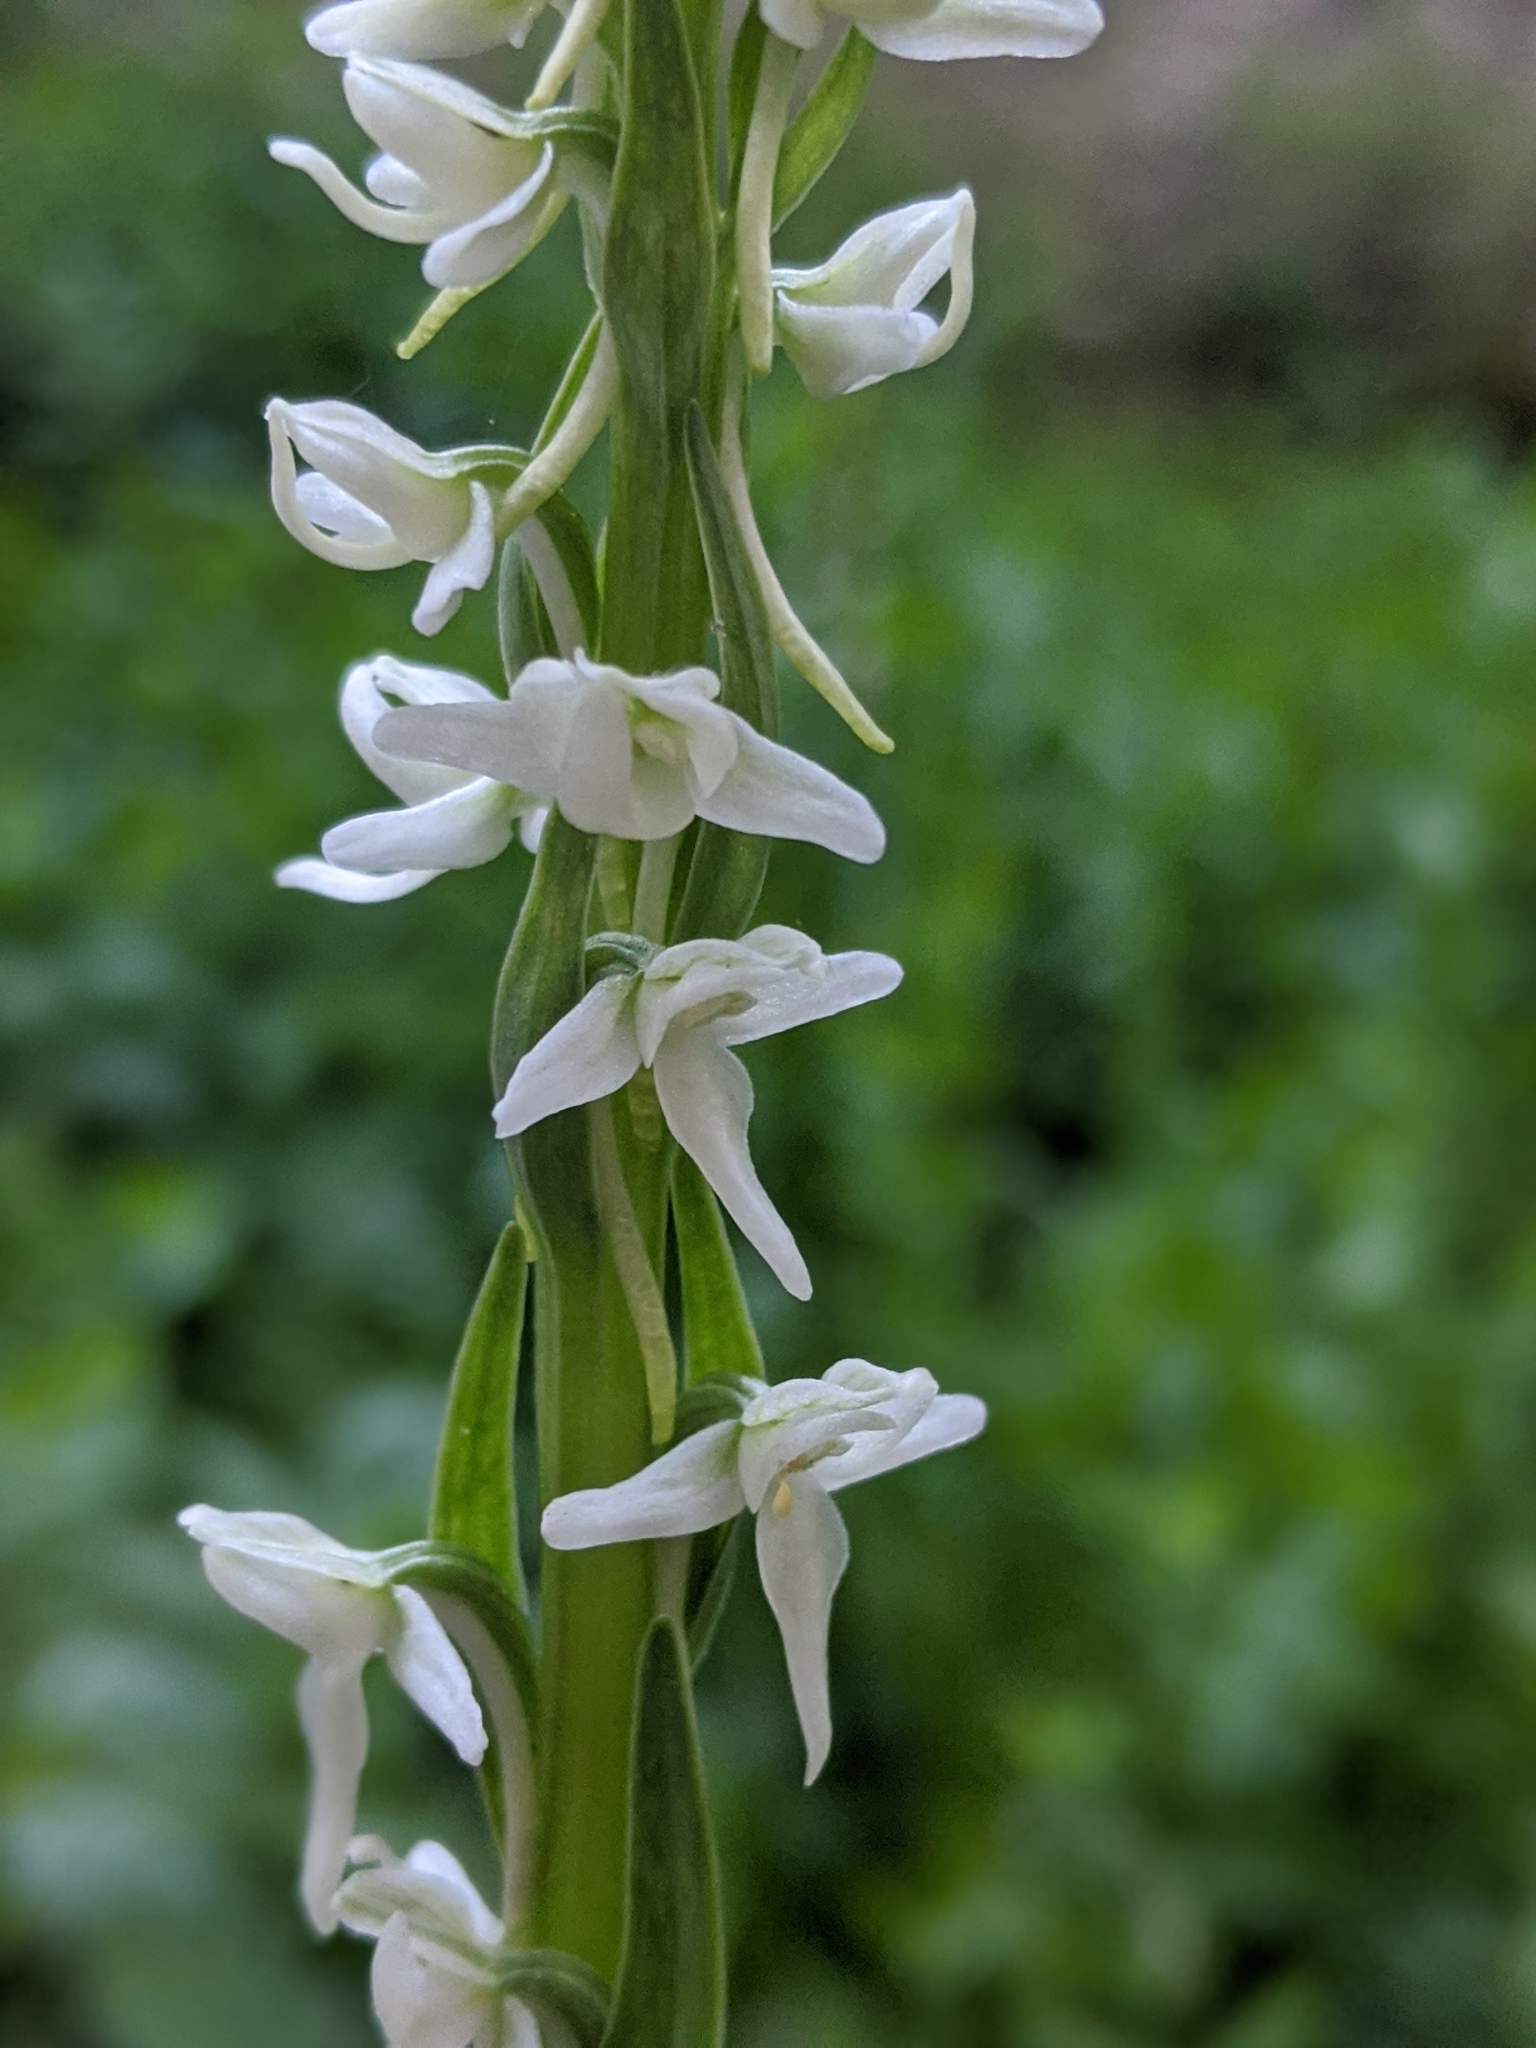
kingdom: Plantae
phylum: Tracheophyta
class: Liliopsida
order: Asparagales
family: Orchidaceae
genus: Platanthera
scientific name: Platanthera dilatata
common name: Bog candles
